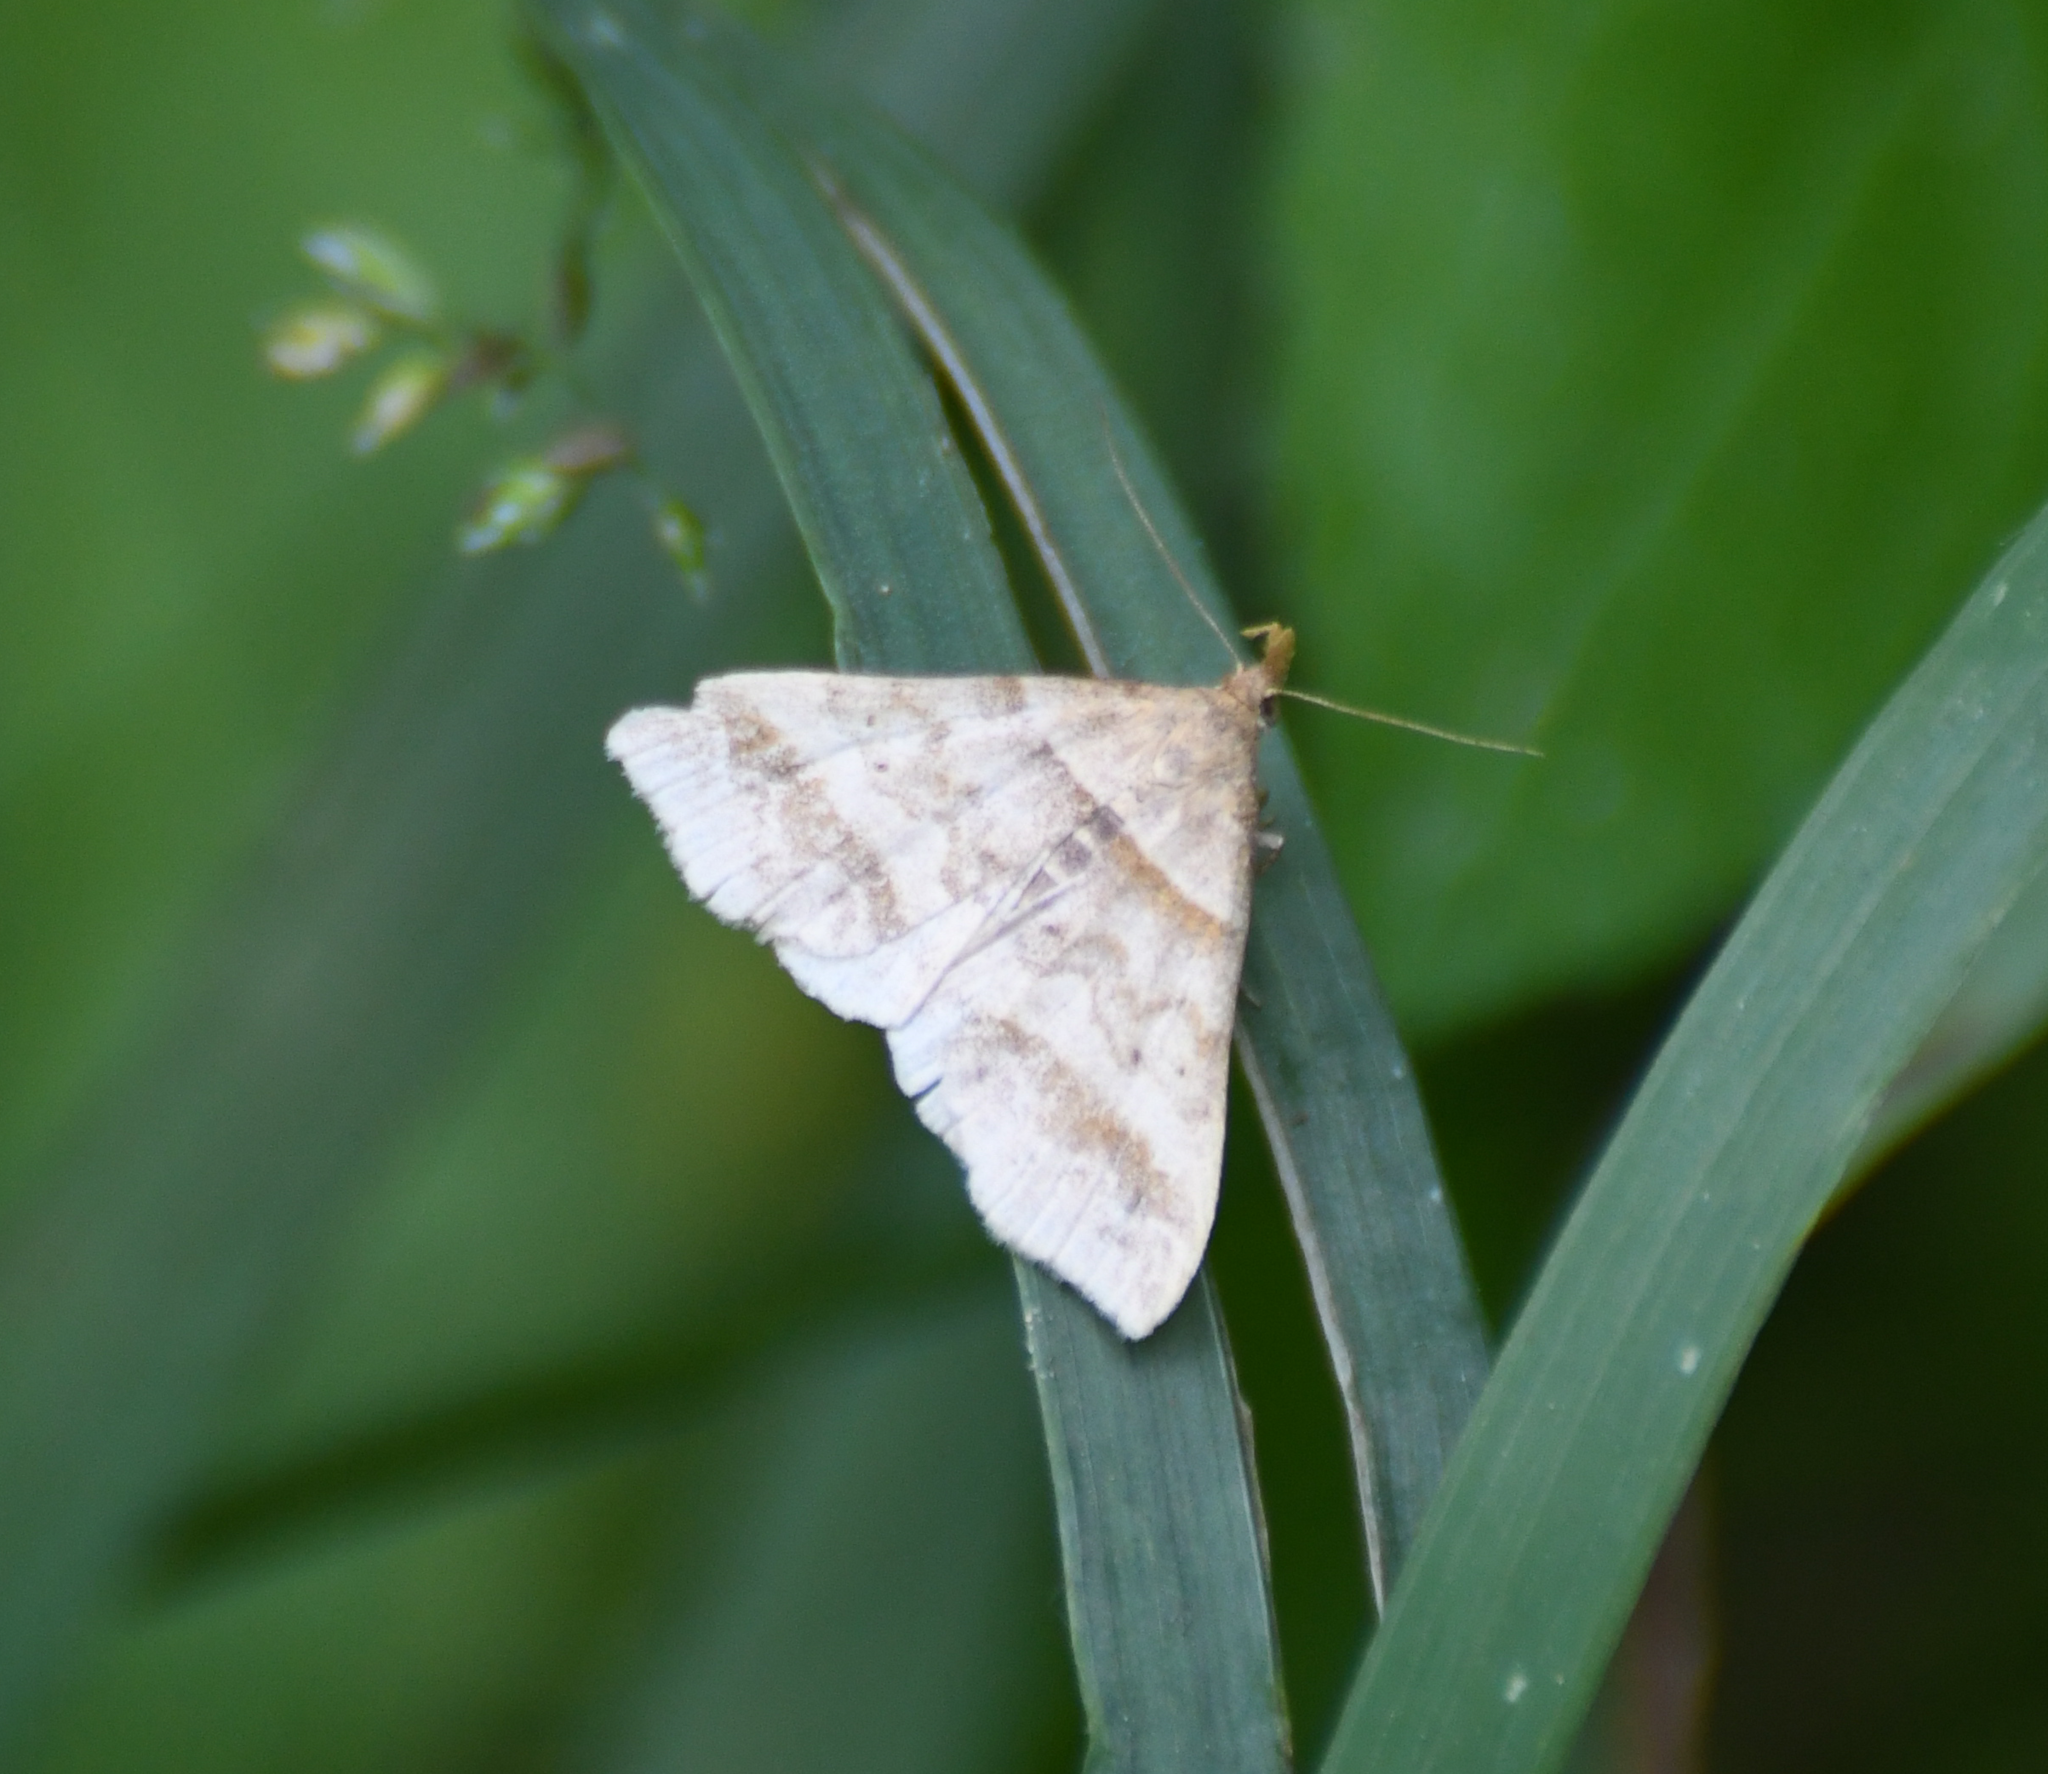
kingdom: Animalia
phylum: Arthropoda
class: Insecta
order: Lepidoptera
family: Erebidae
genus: Phaeolita
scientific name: Phaeolita pyramusalis
